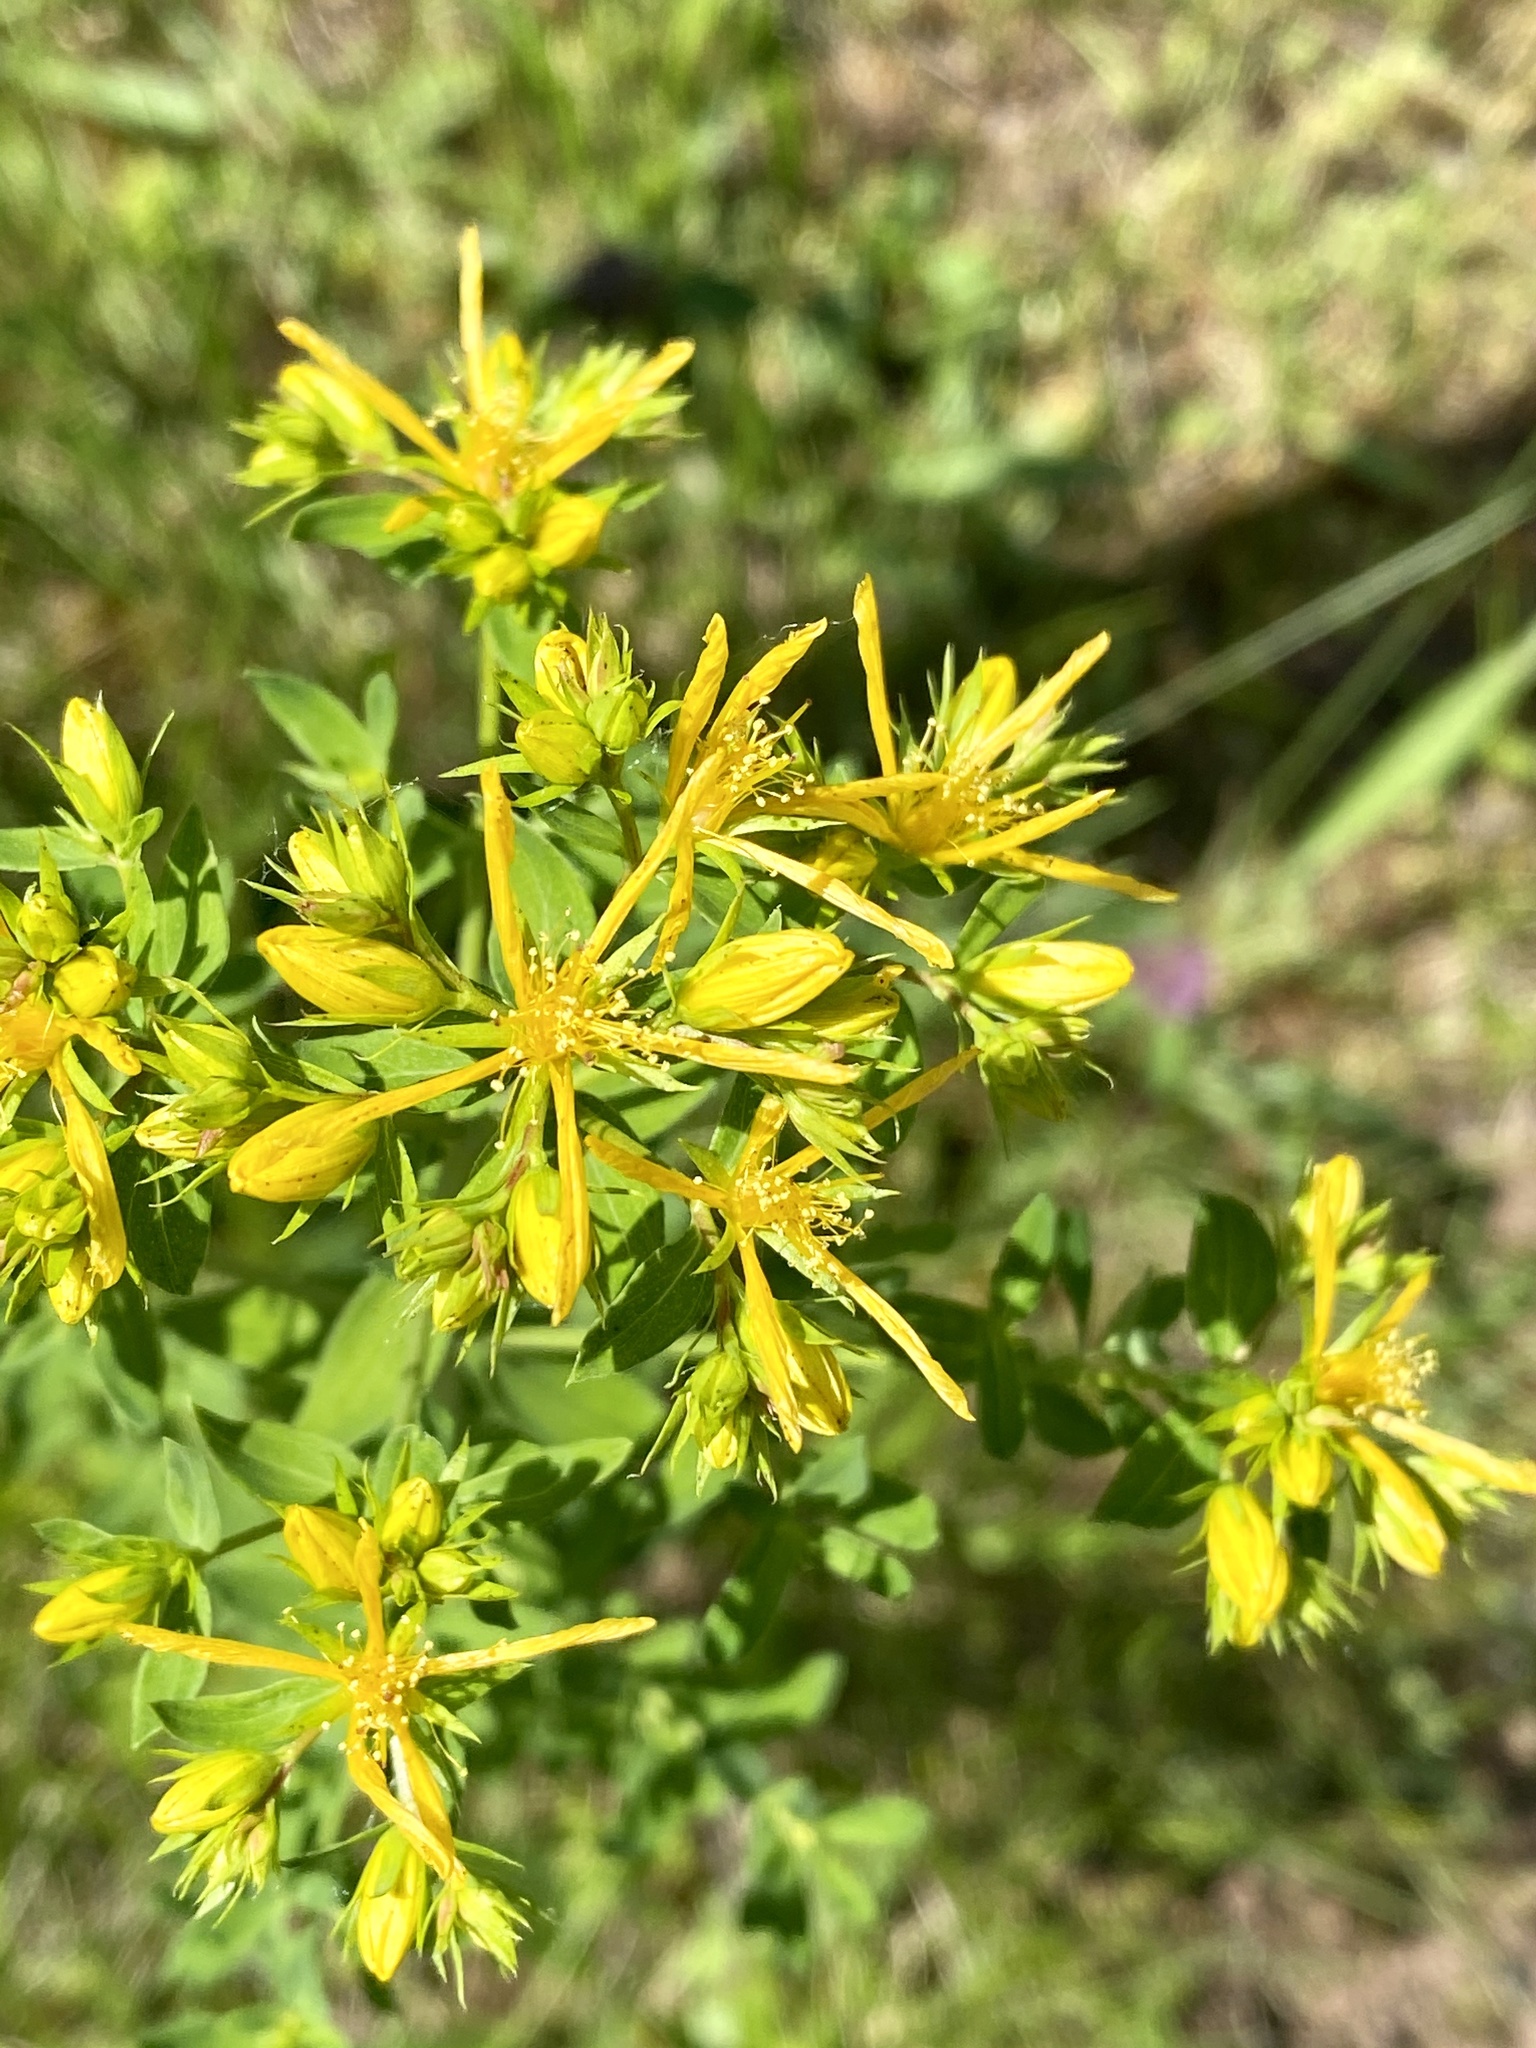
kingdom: Plantae
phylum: Tracheophyta
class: Magnoliopsida
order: Malpighiales
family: Hypericaceae
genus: Hypericum
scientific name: Hypericum perforatum
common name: Common st. johnswort
